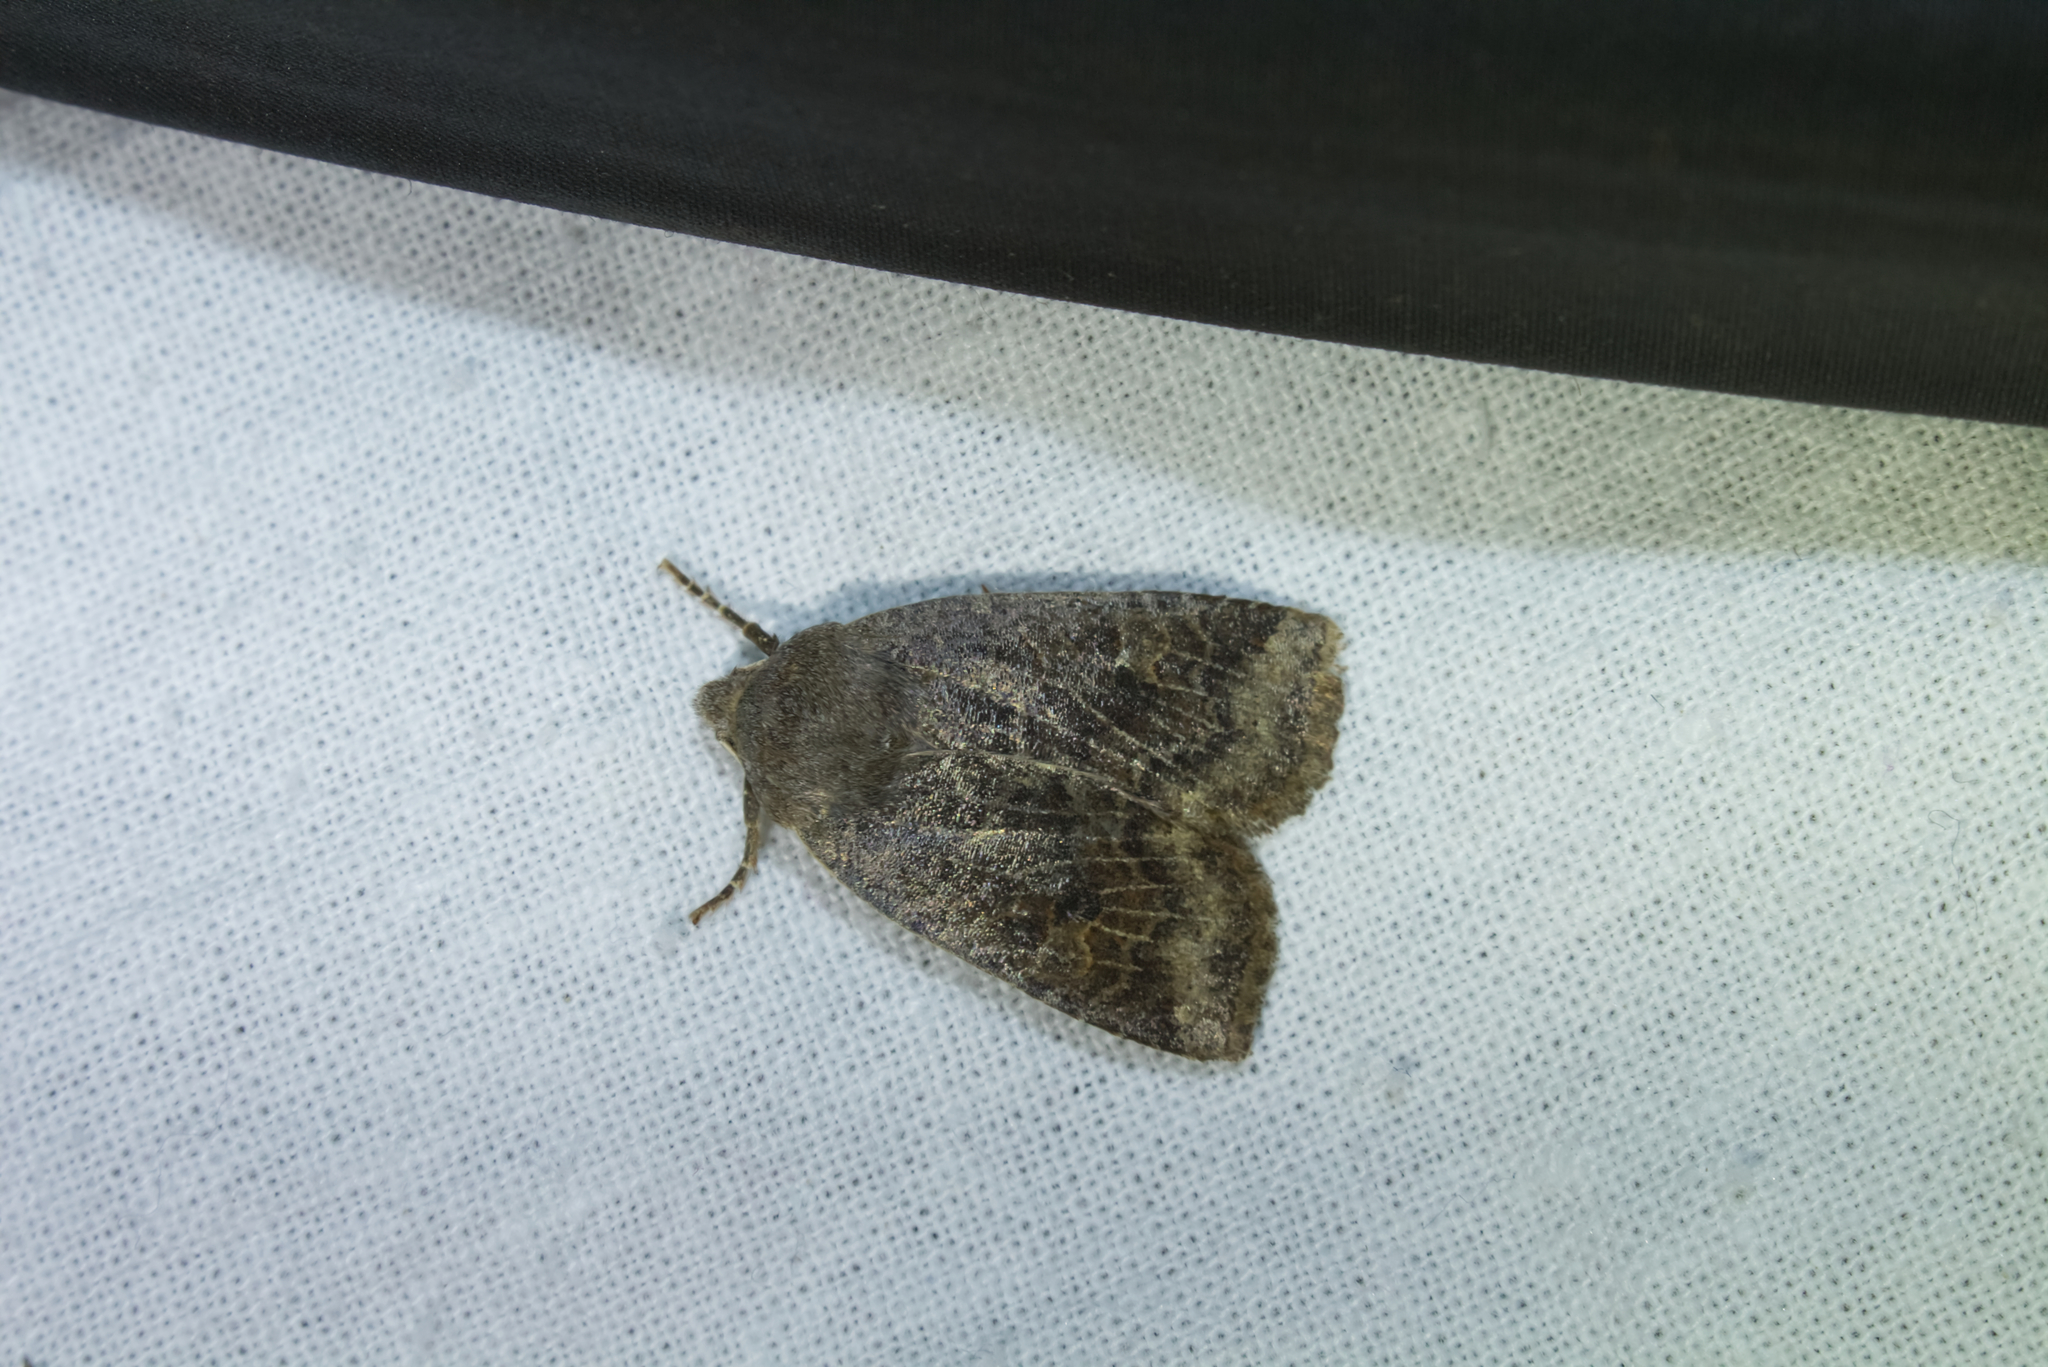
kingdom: Animalia
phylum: Arthropoda
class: Insecta
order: Lepidoptera
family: Noctuidae
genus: Conistra
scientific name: Conistra ligula
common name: Dark chestnut
